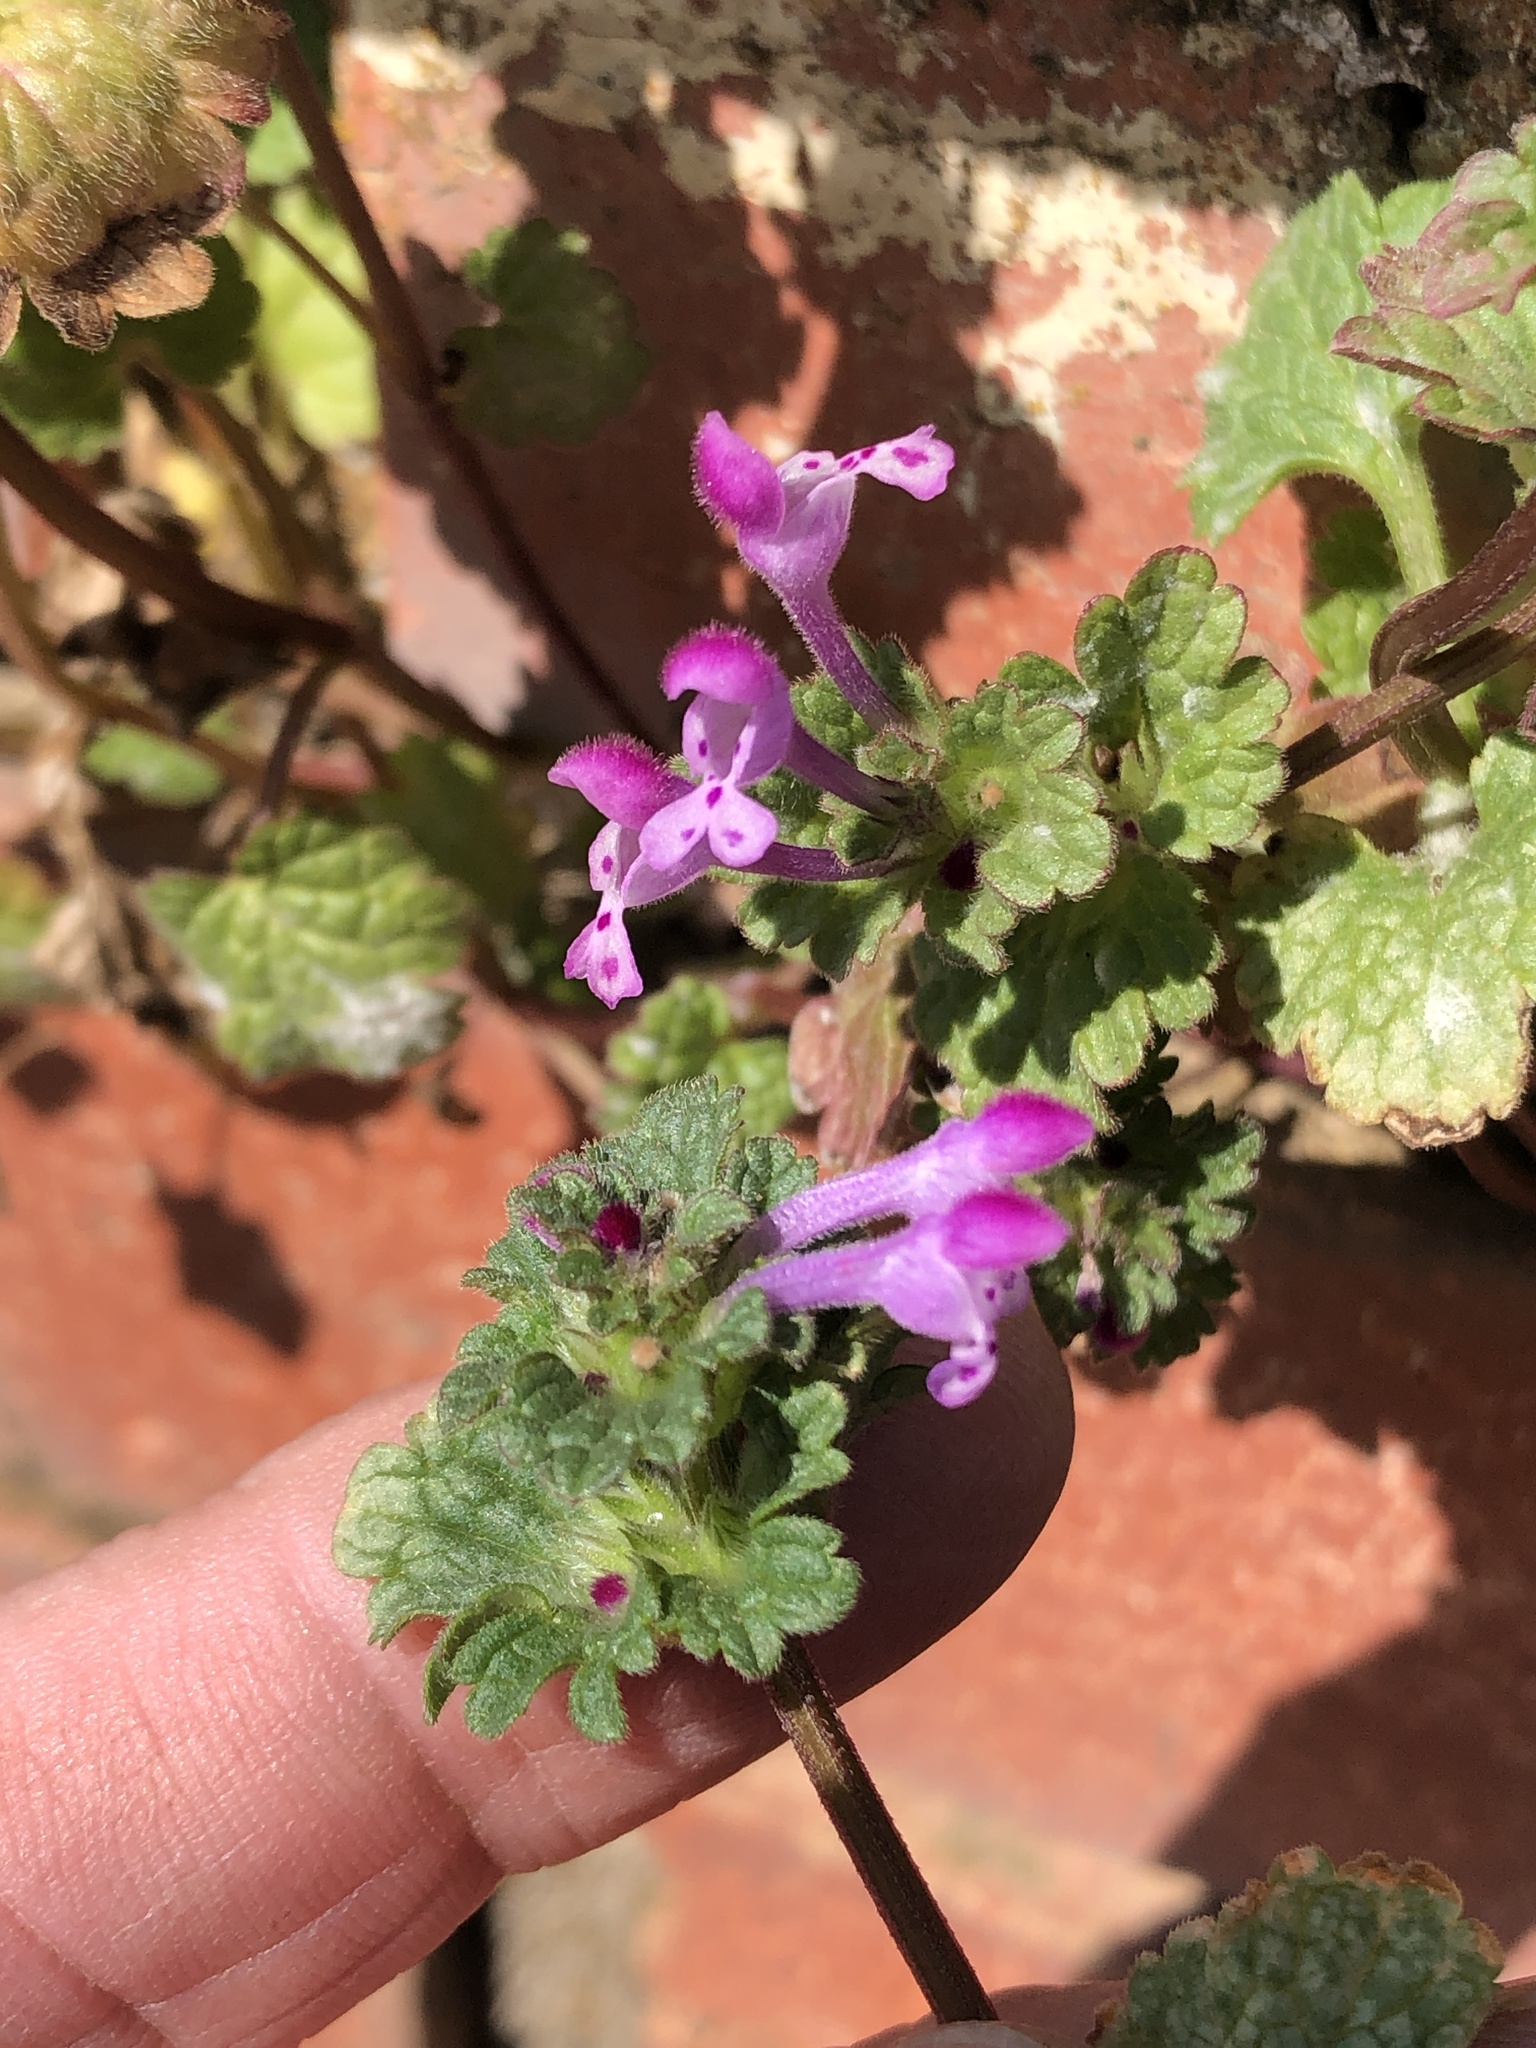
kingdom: Plantae
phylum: Tracheophyta
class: Magnoliopsida
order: Lamiales
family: Lamiaceae
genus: Lamium
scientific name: Lamium amplexicaule
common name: Henbit dead-nettle
